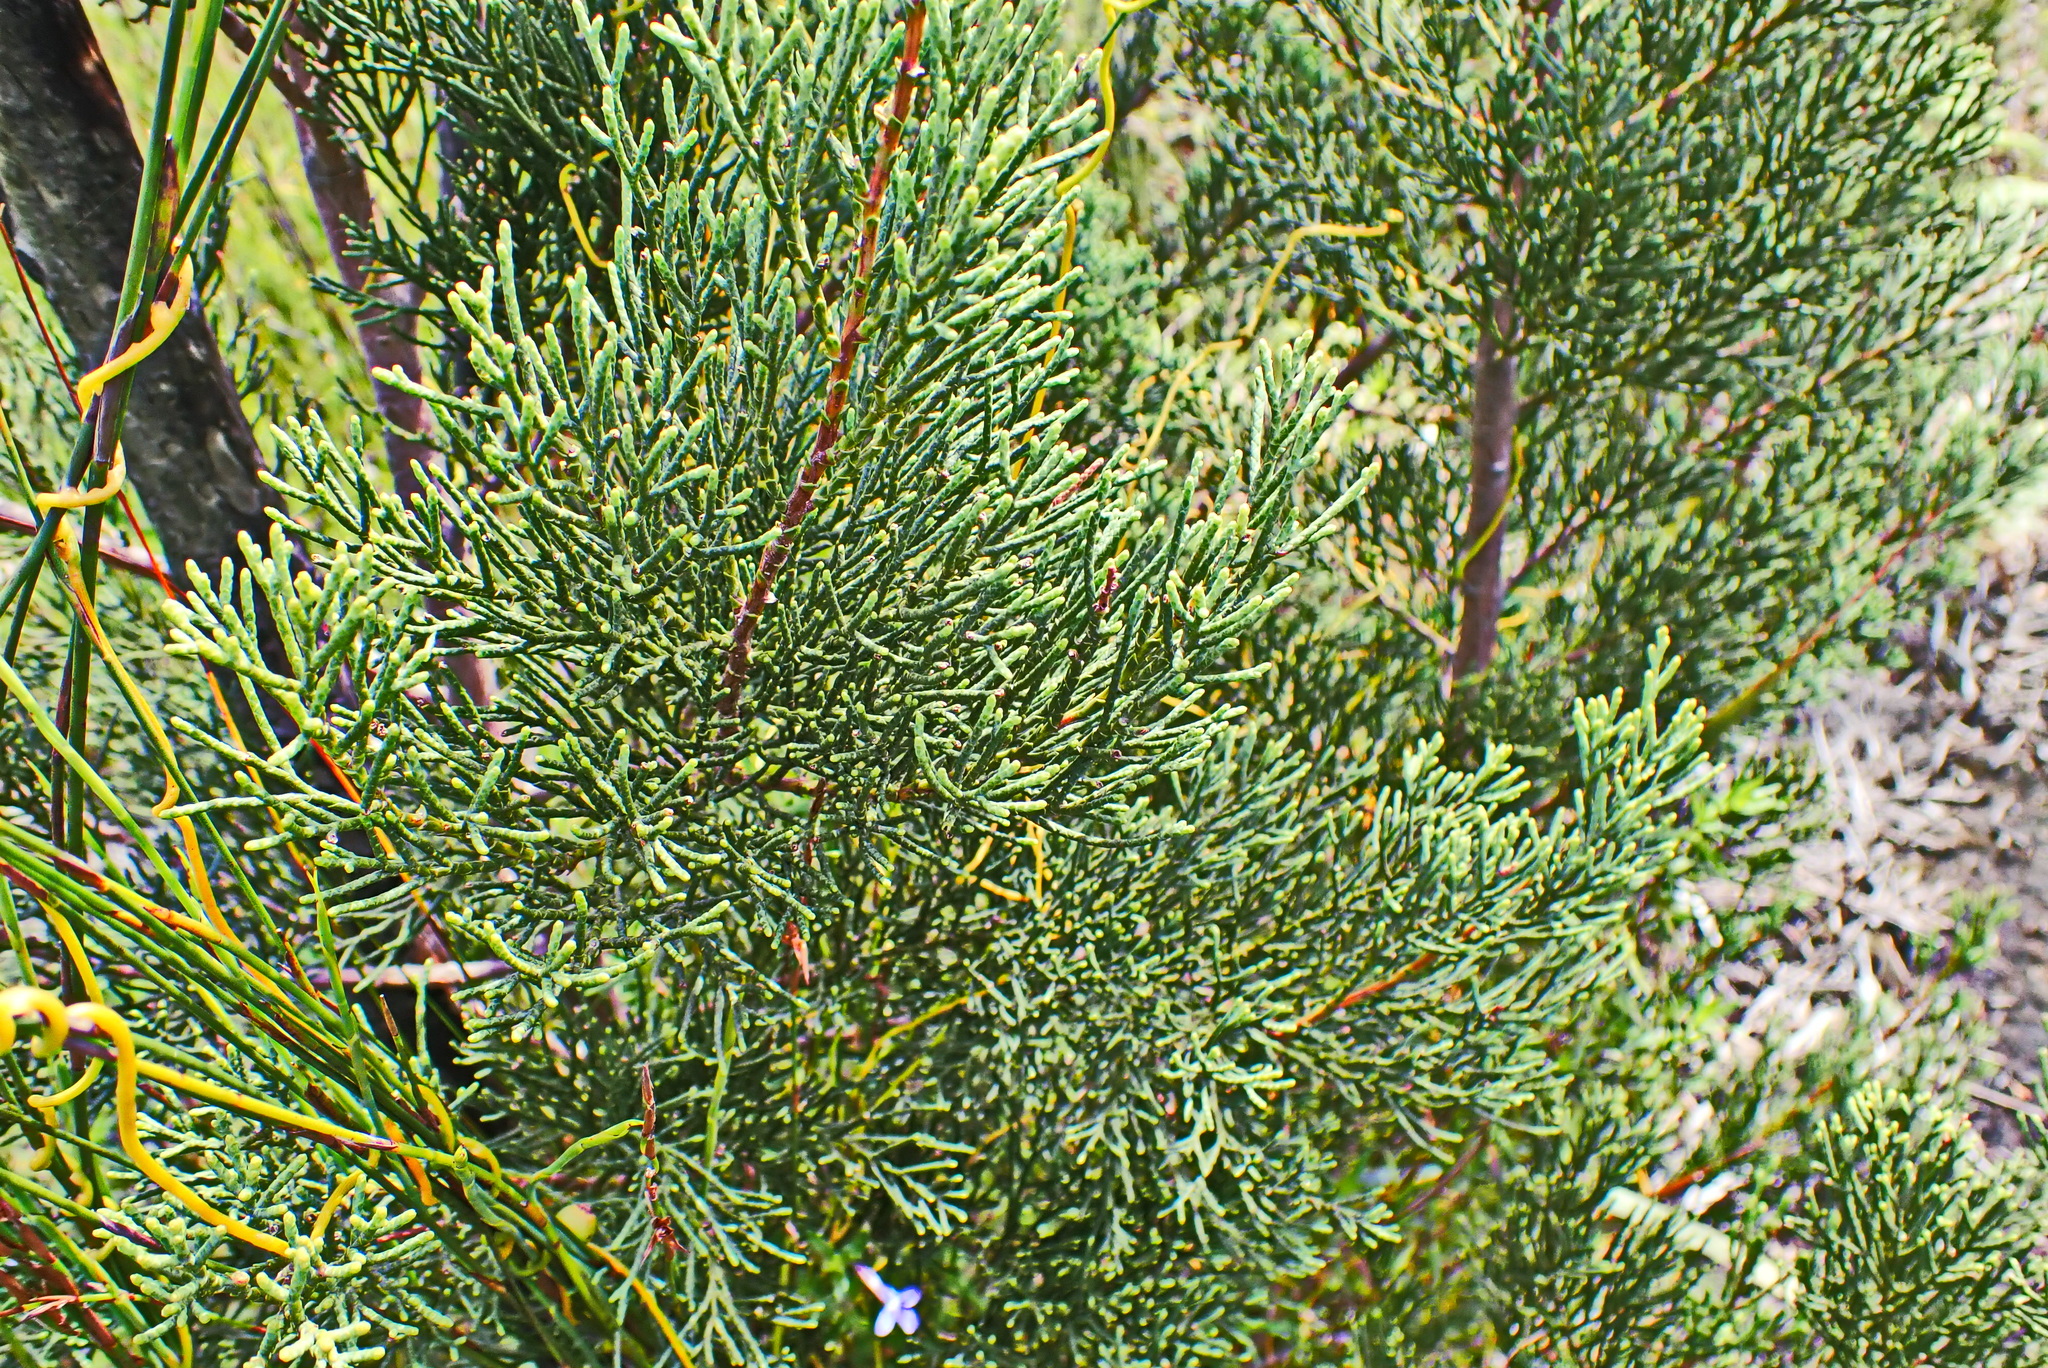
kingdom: Plantae
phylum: Tracheophyta
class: Pinopsida
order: Pinales
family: Cupressaceae
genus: Widdringtonia
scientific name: Widdringtonia nodiflora
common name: Cape cypress
